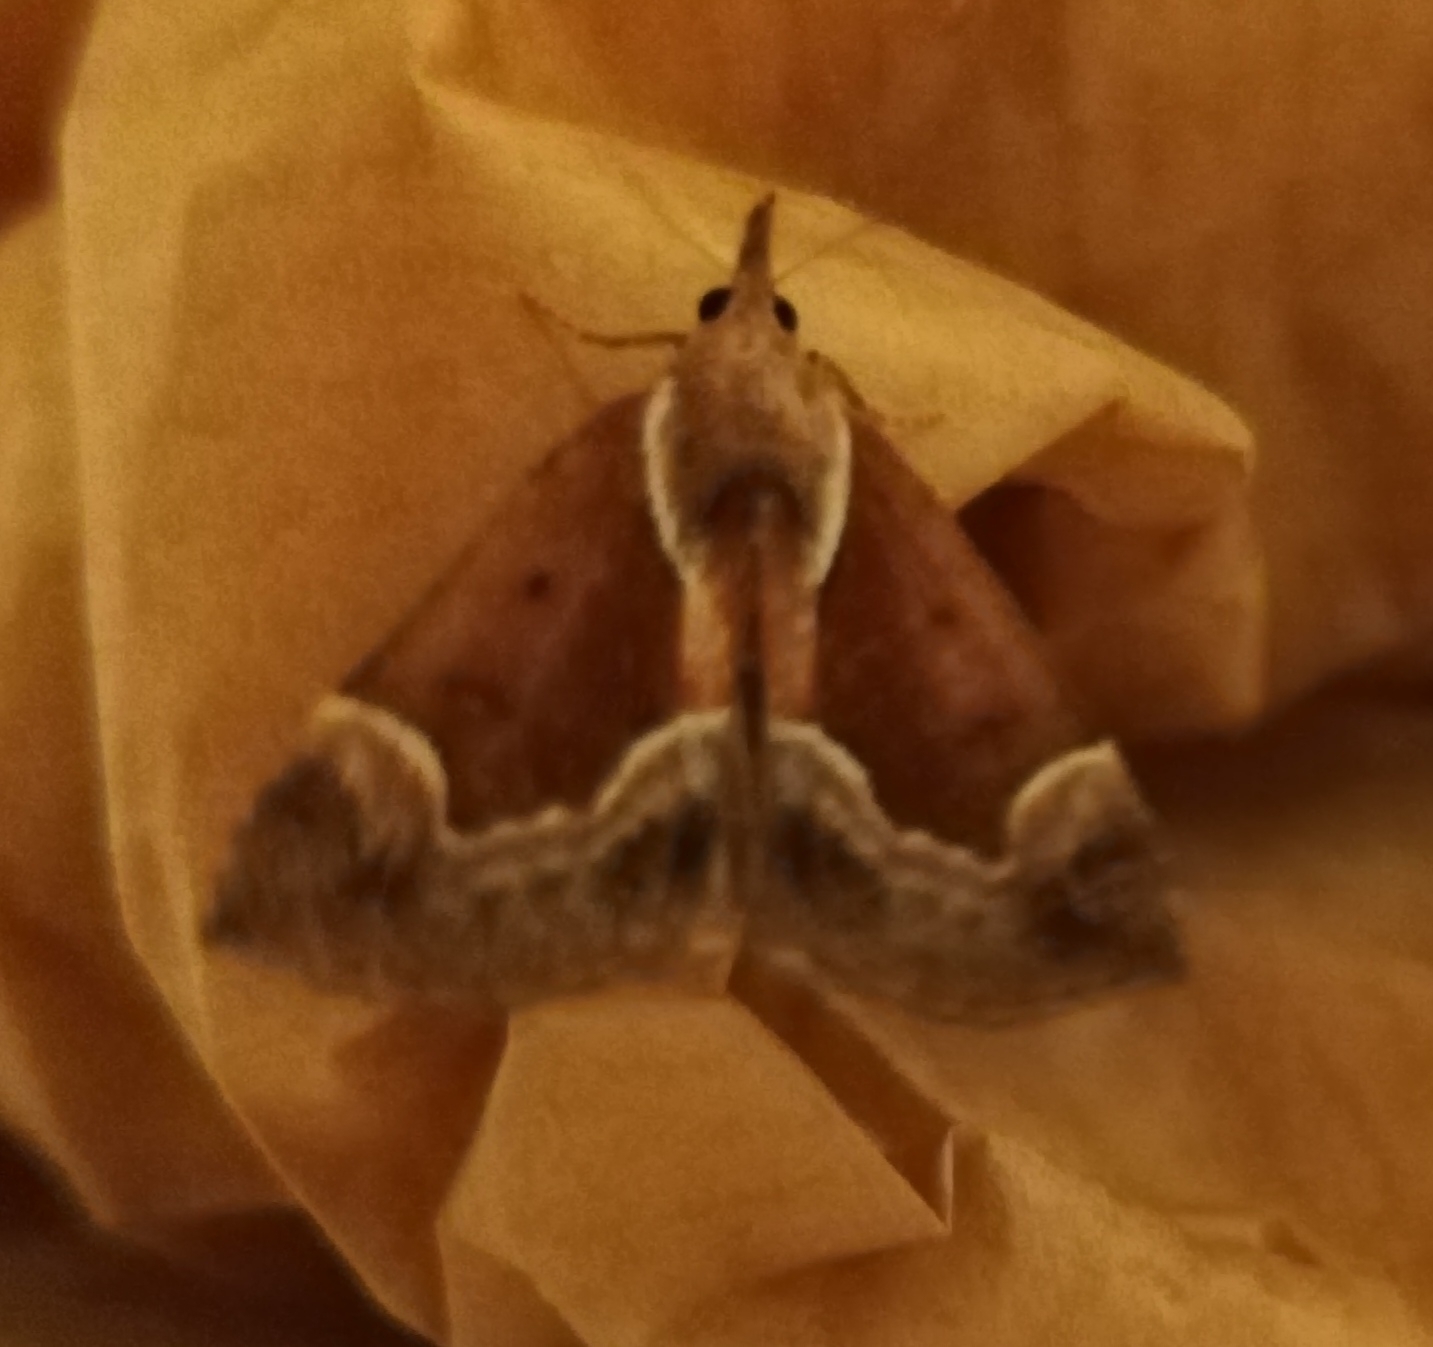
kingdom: Animalia
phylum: Arthropoda
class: Insecta
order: Lepidoptera
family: Erebidae
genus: Hypena
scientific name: Hypena crassalis
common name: Beautiful snout
